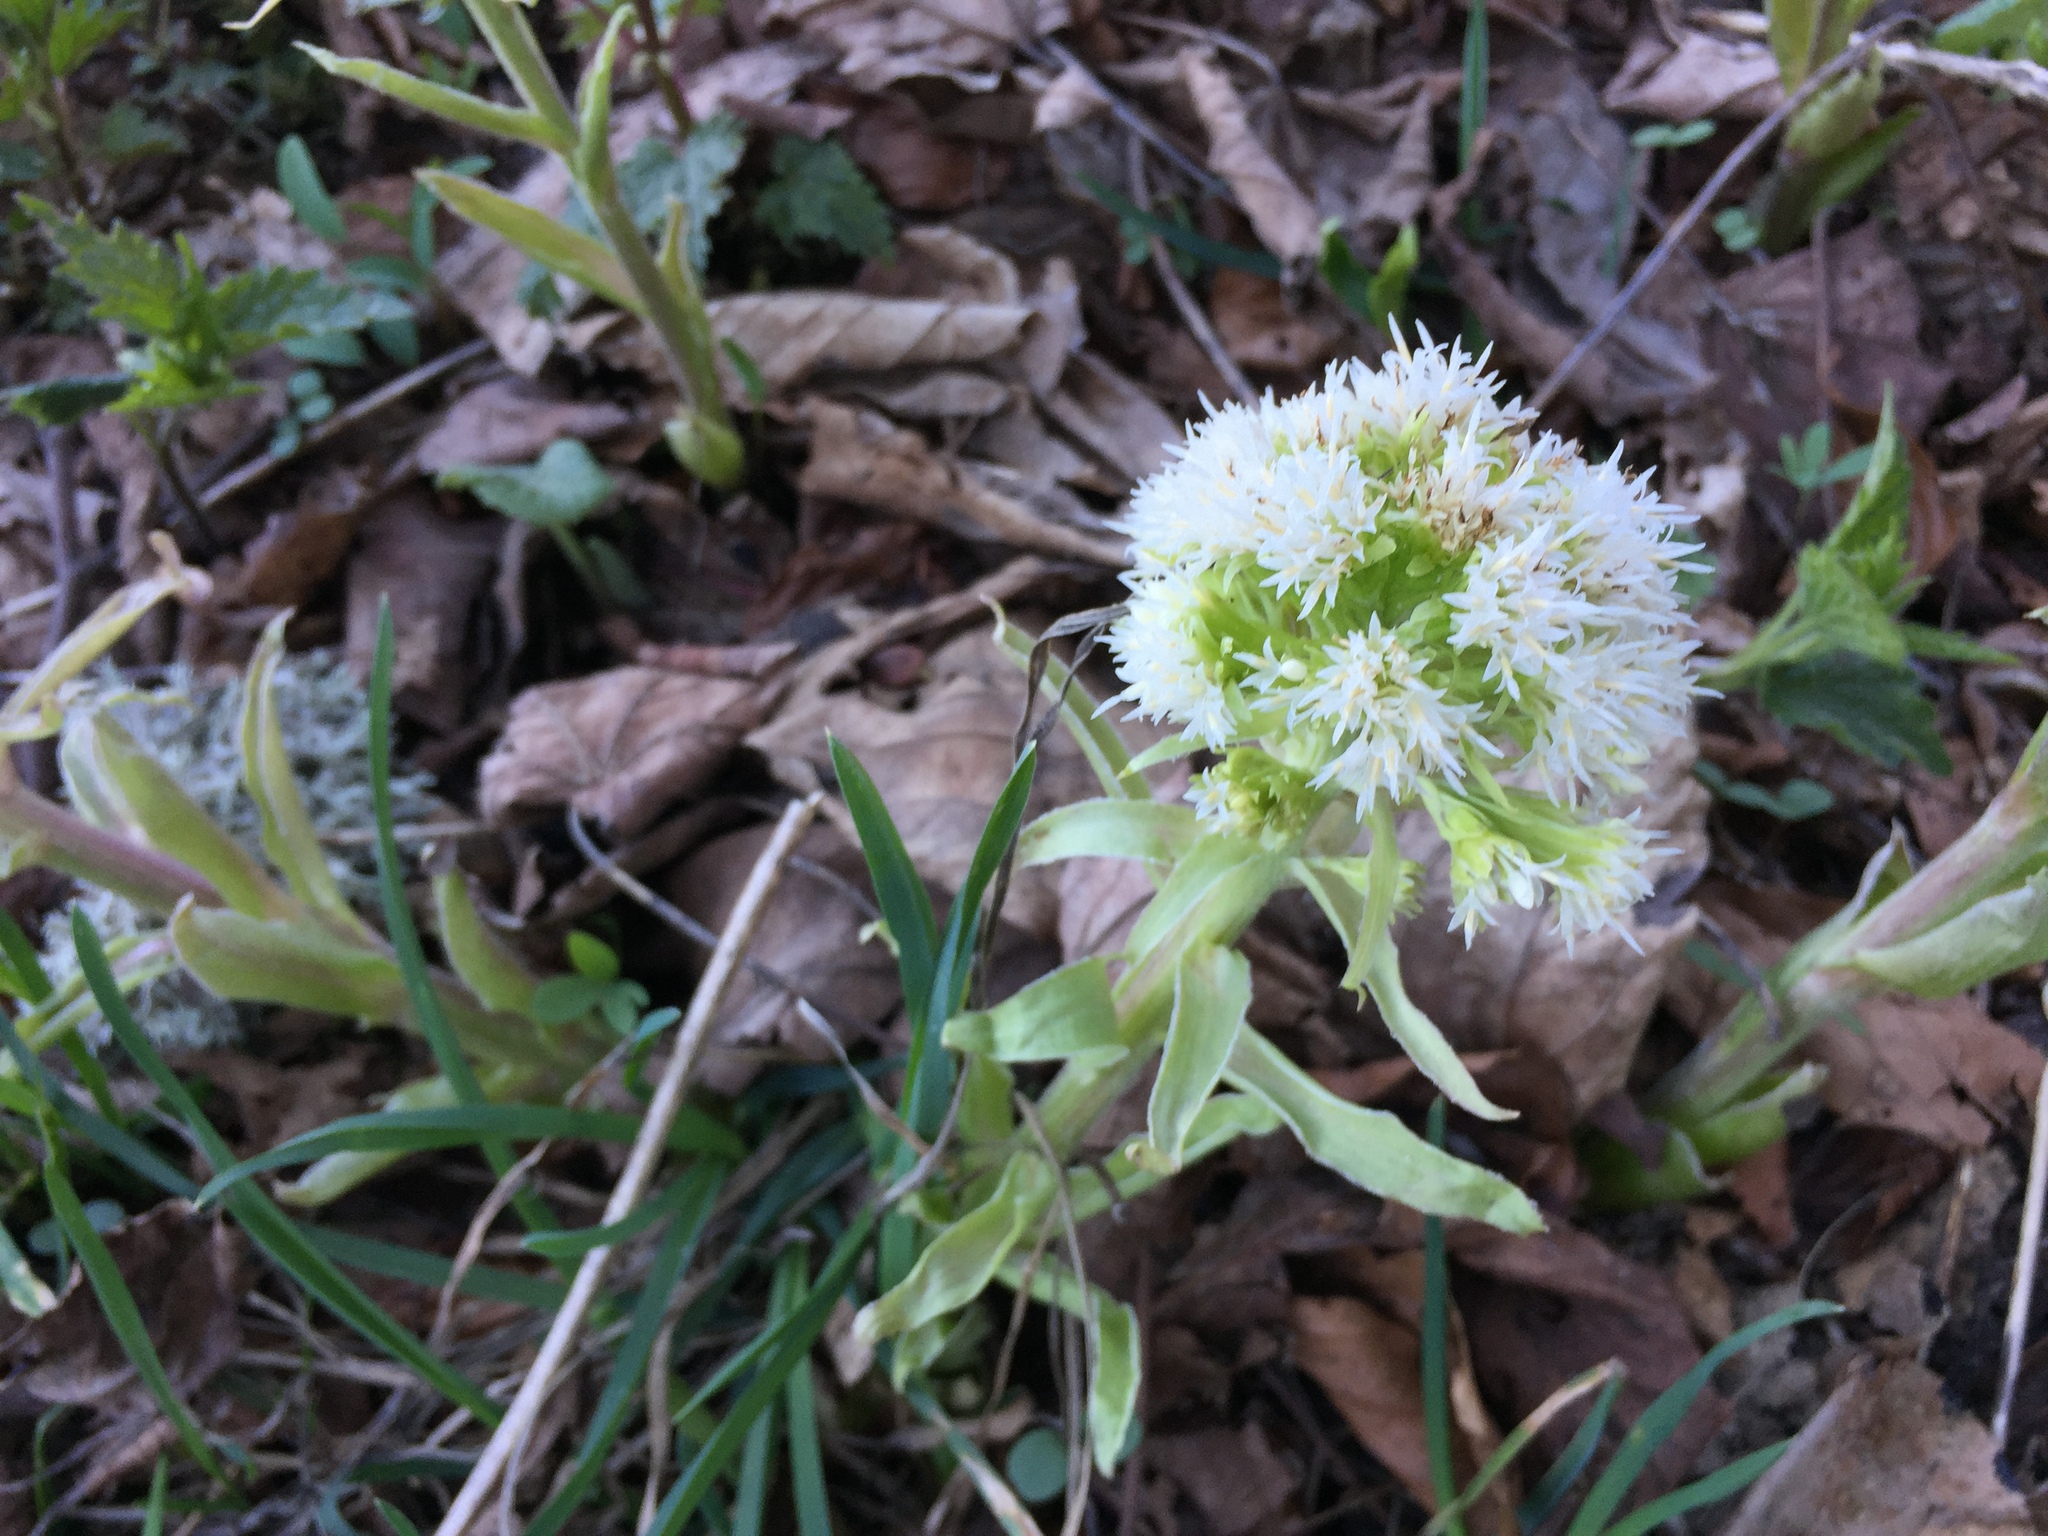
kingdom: Plantae
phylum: Tracheophyta
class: Magnoliopsida
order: Asterales
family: Asteraceae
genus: Petasites
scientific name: Petasites albus
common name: White butterbur
